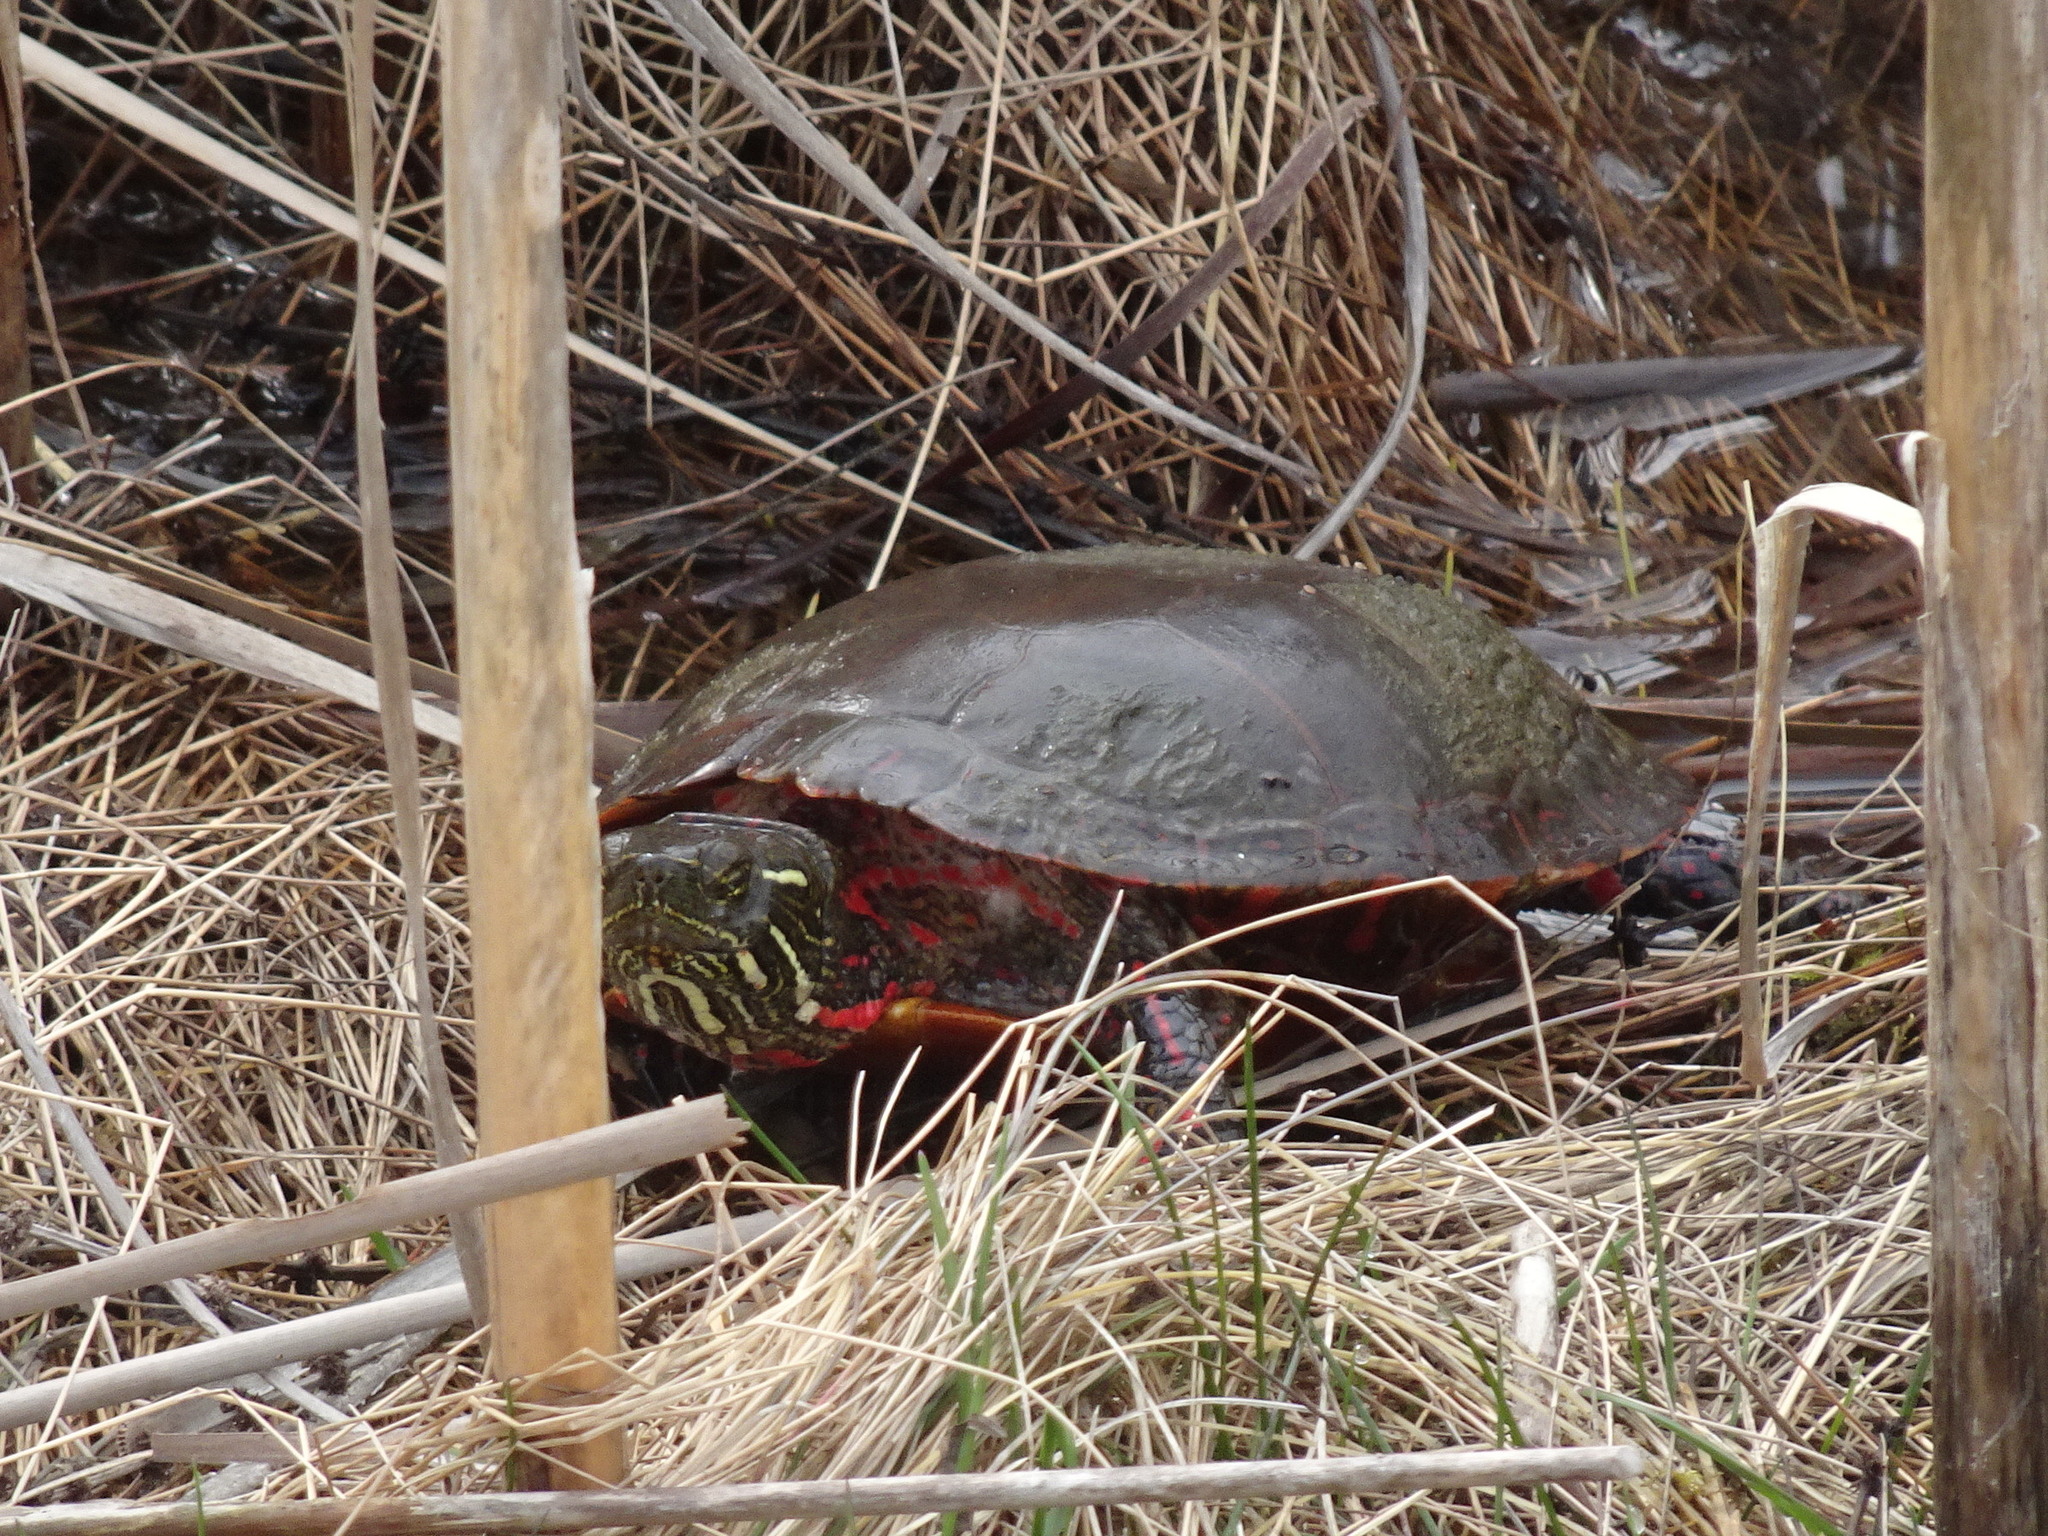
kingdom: Animalia
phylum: Chordata
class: Testudines
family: Emydidae
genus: Chrysemys
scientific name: Chrysemys picta
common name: Painted turtle
